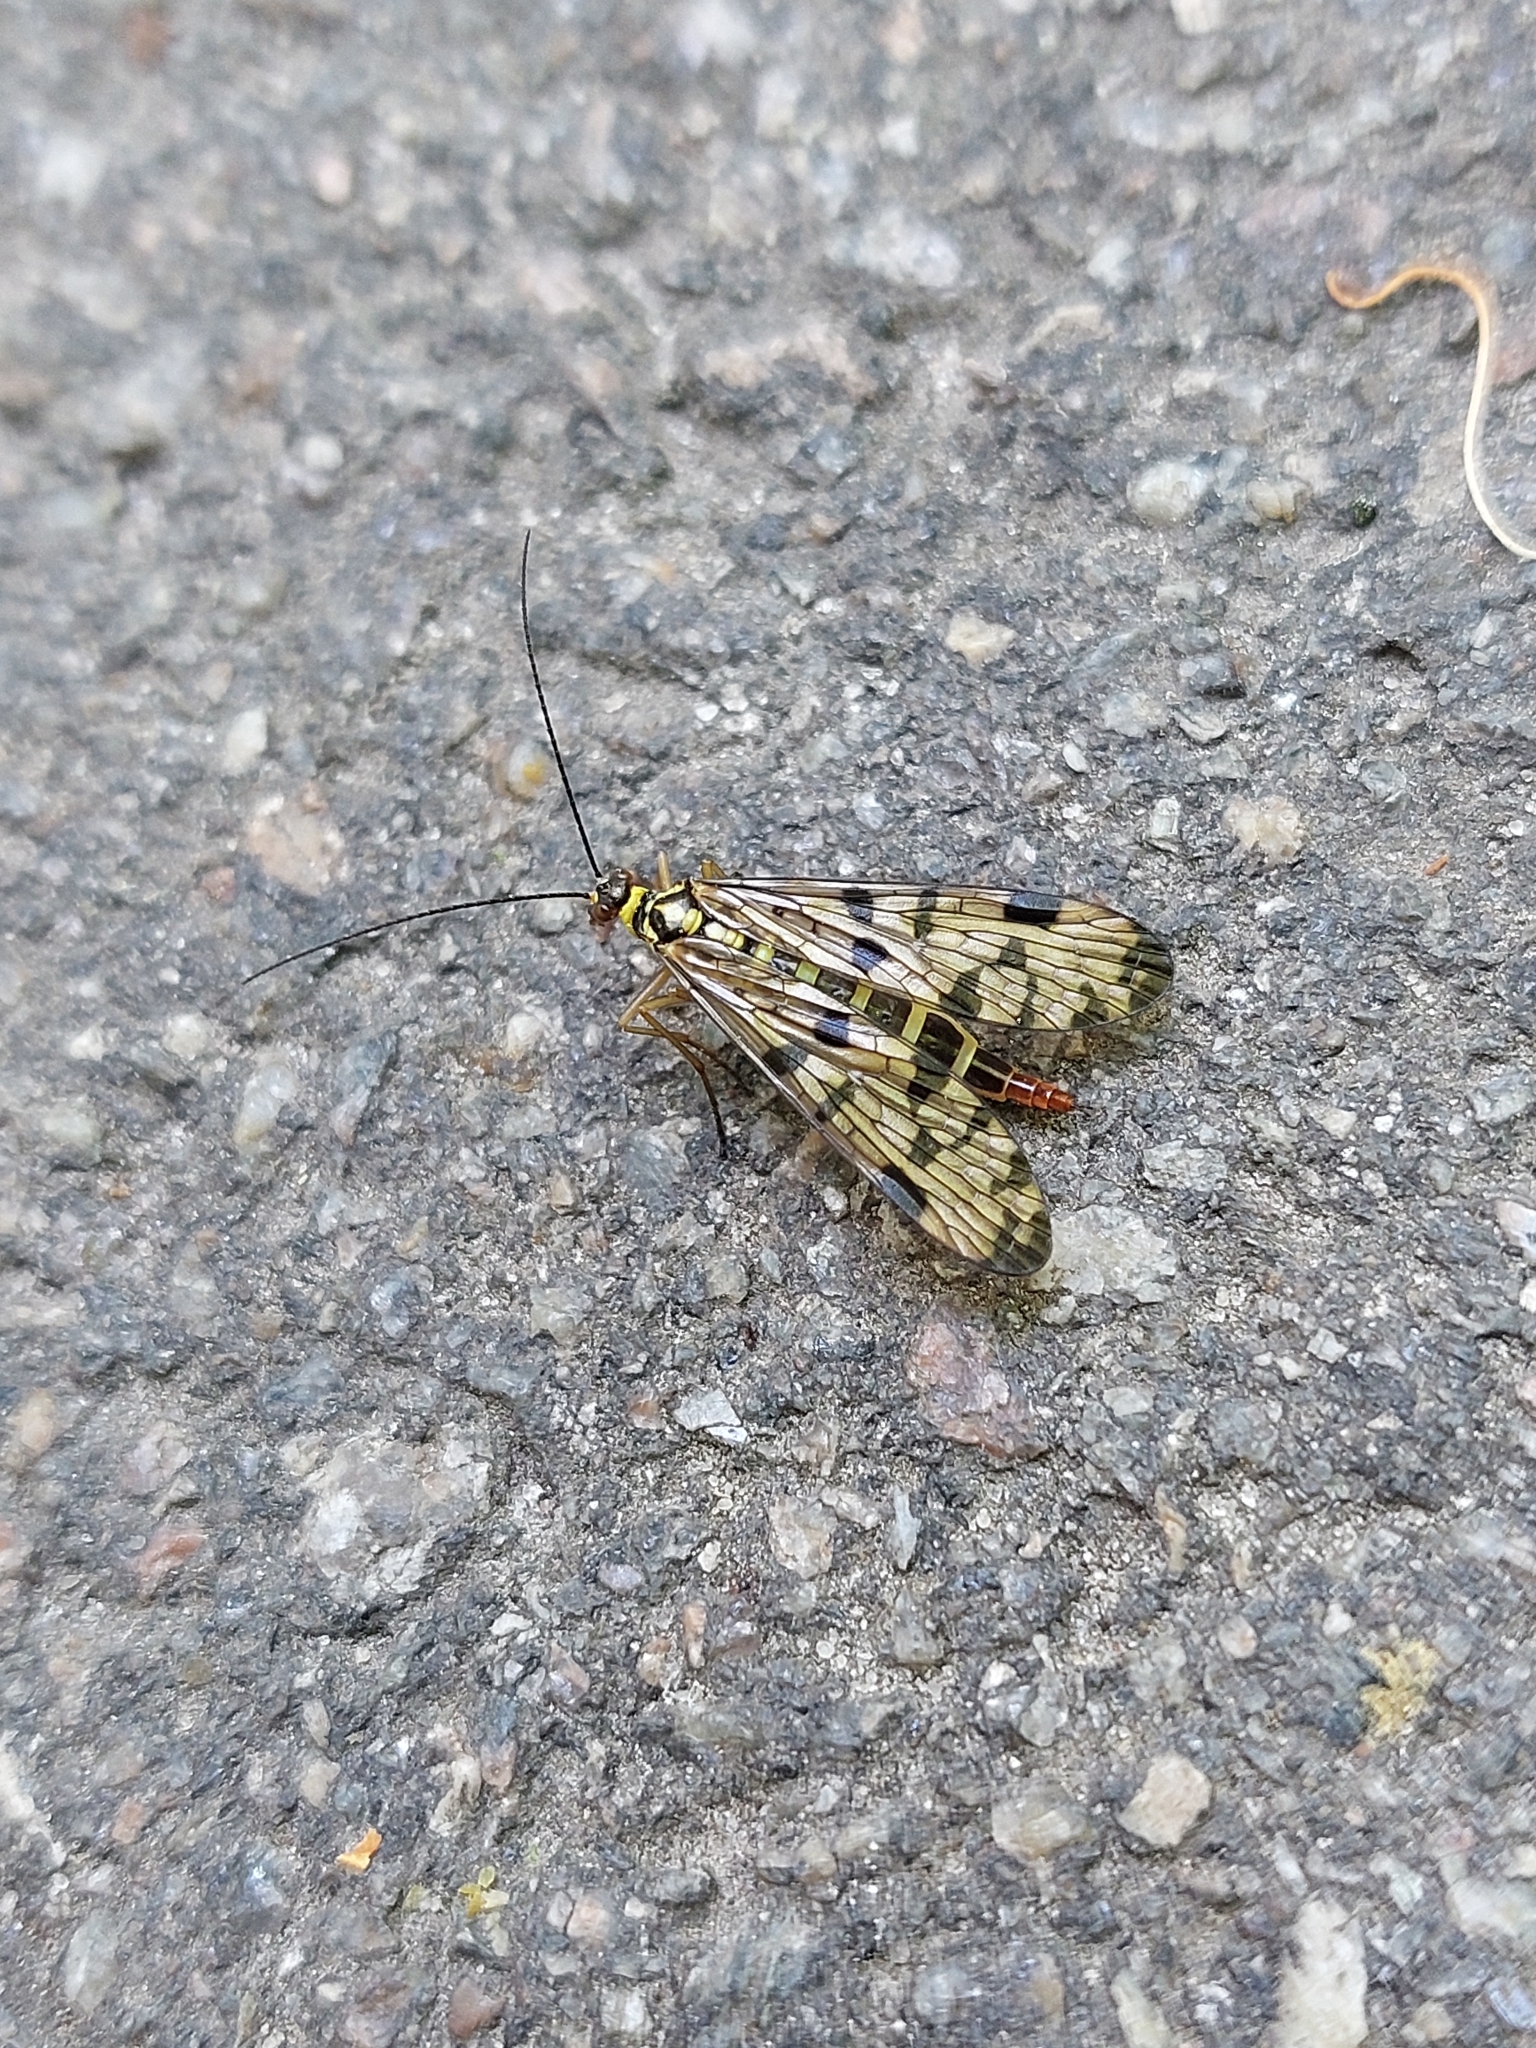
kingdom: Animalia
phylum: Arthropoda
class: Insecta
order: Mecoptera
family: Panorpidae
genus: Panorpa
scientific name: Panorpa communis
